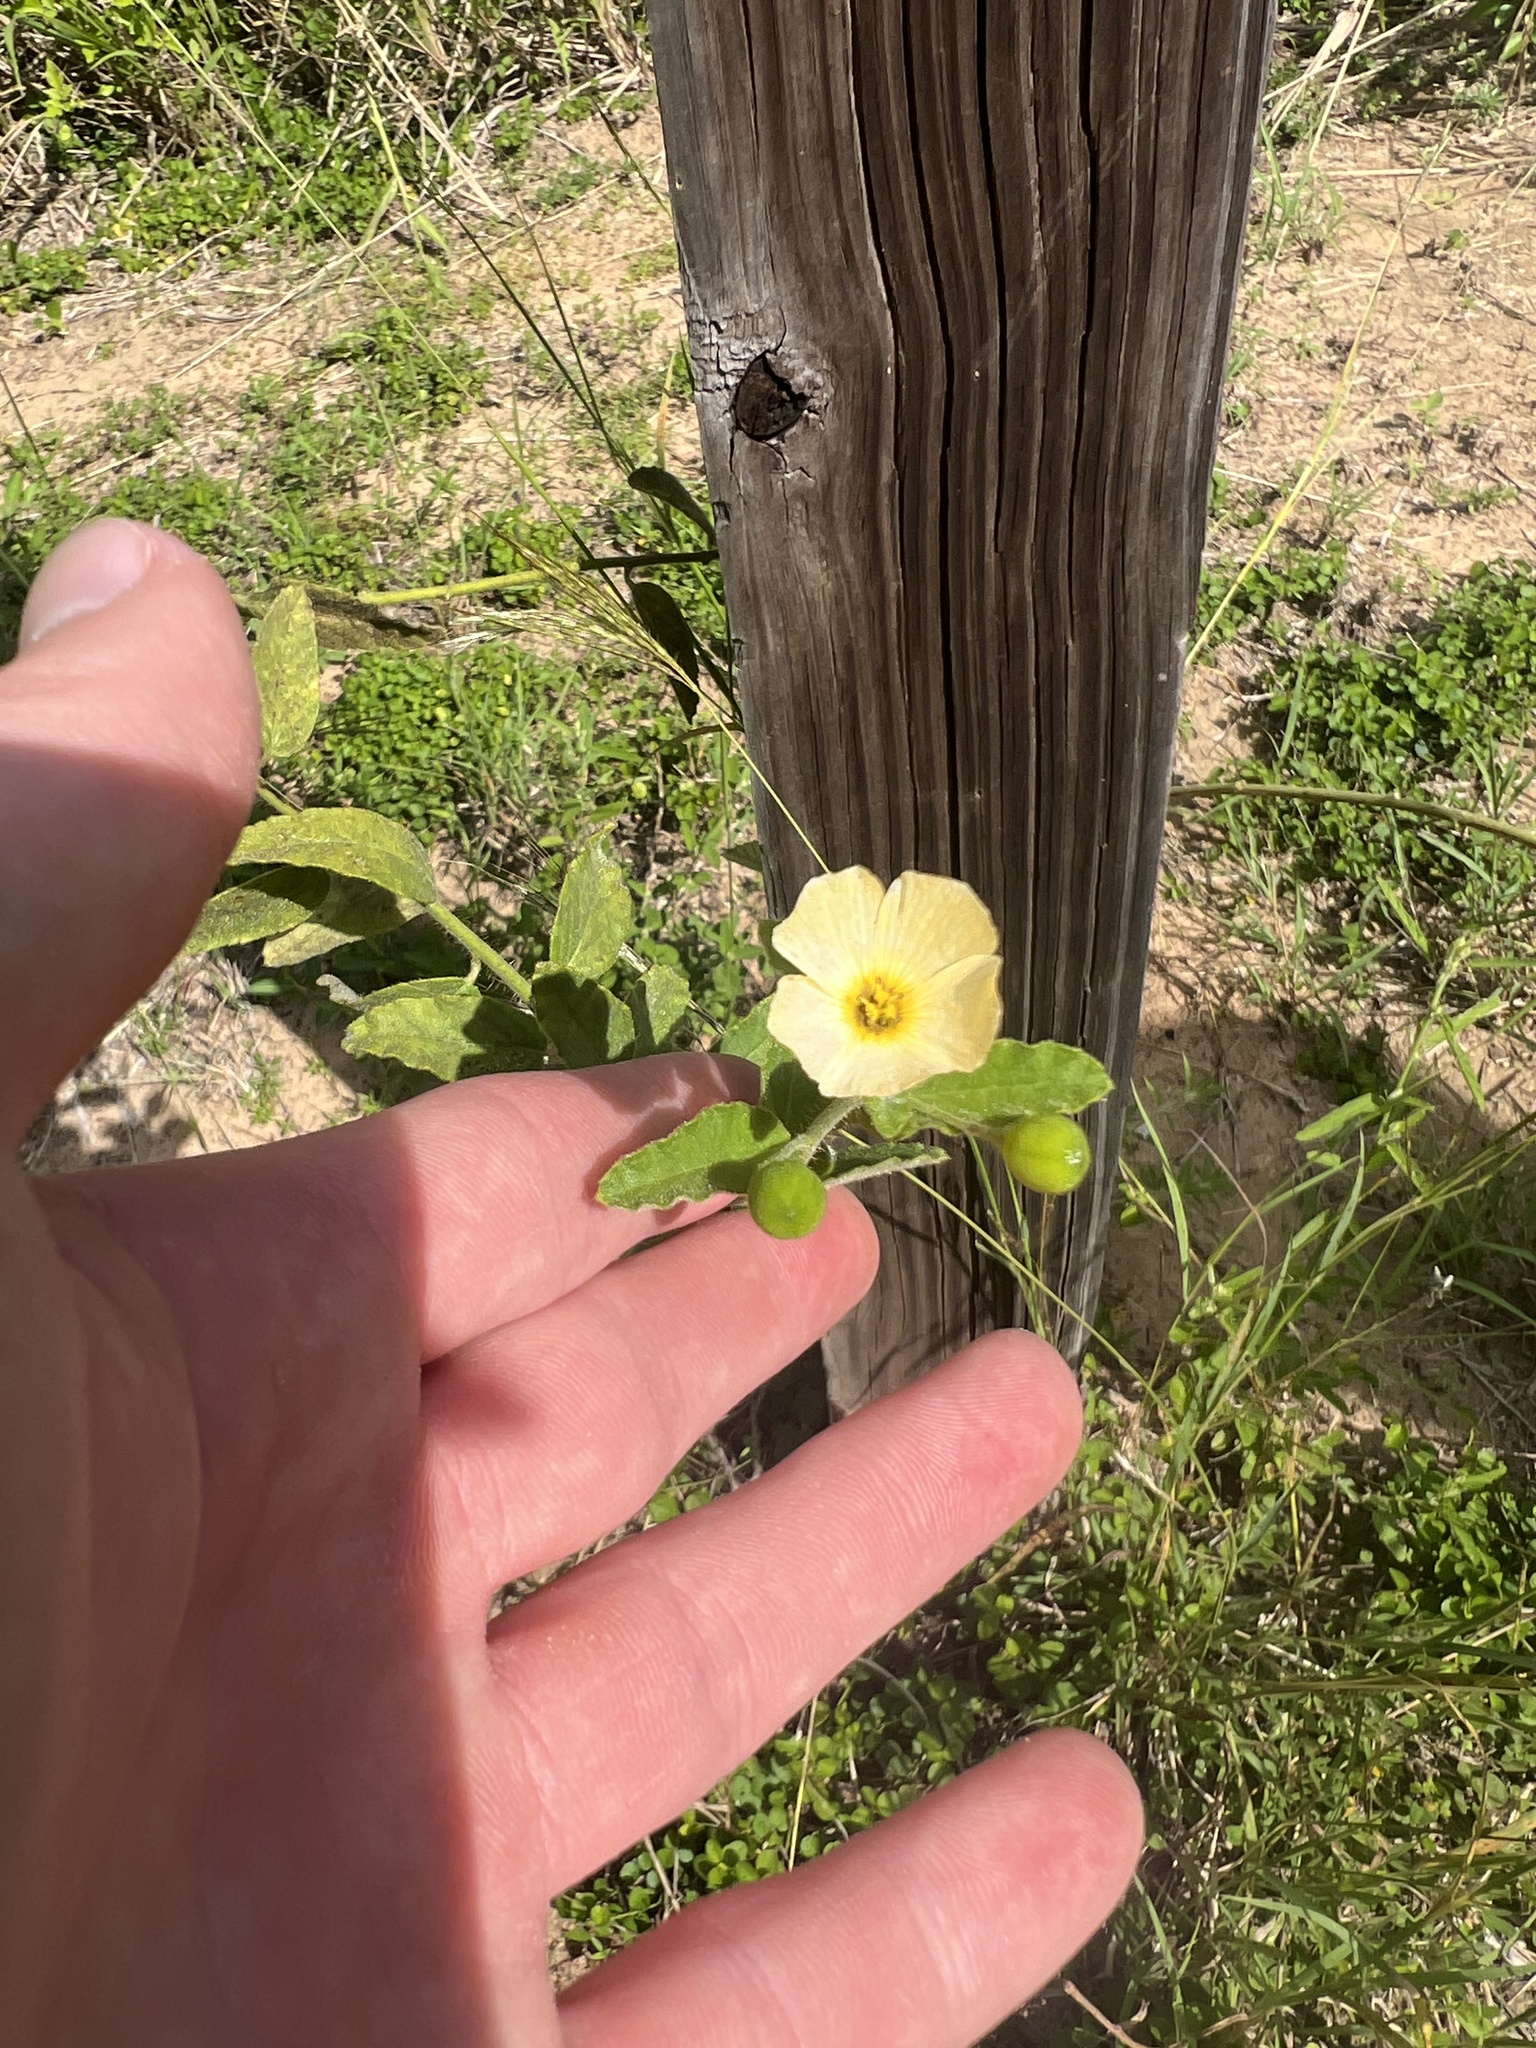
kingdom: Plantae
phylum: Tracheophyta
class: Magnoliopsida
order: Malpighiales
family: Turneraceae
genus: Piriqueta
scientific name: Piriqueta racemosa
